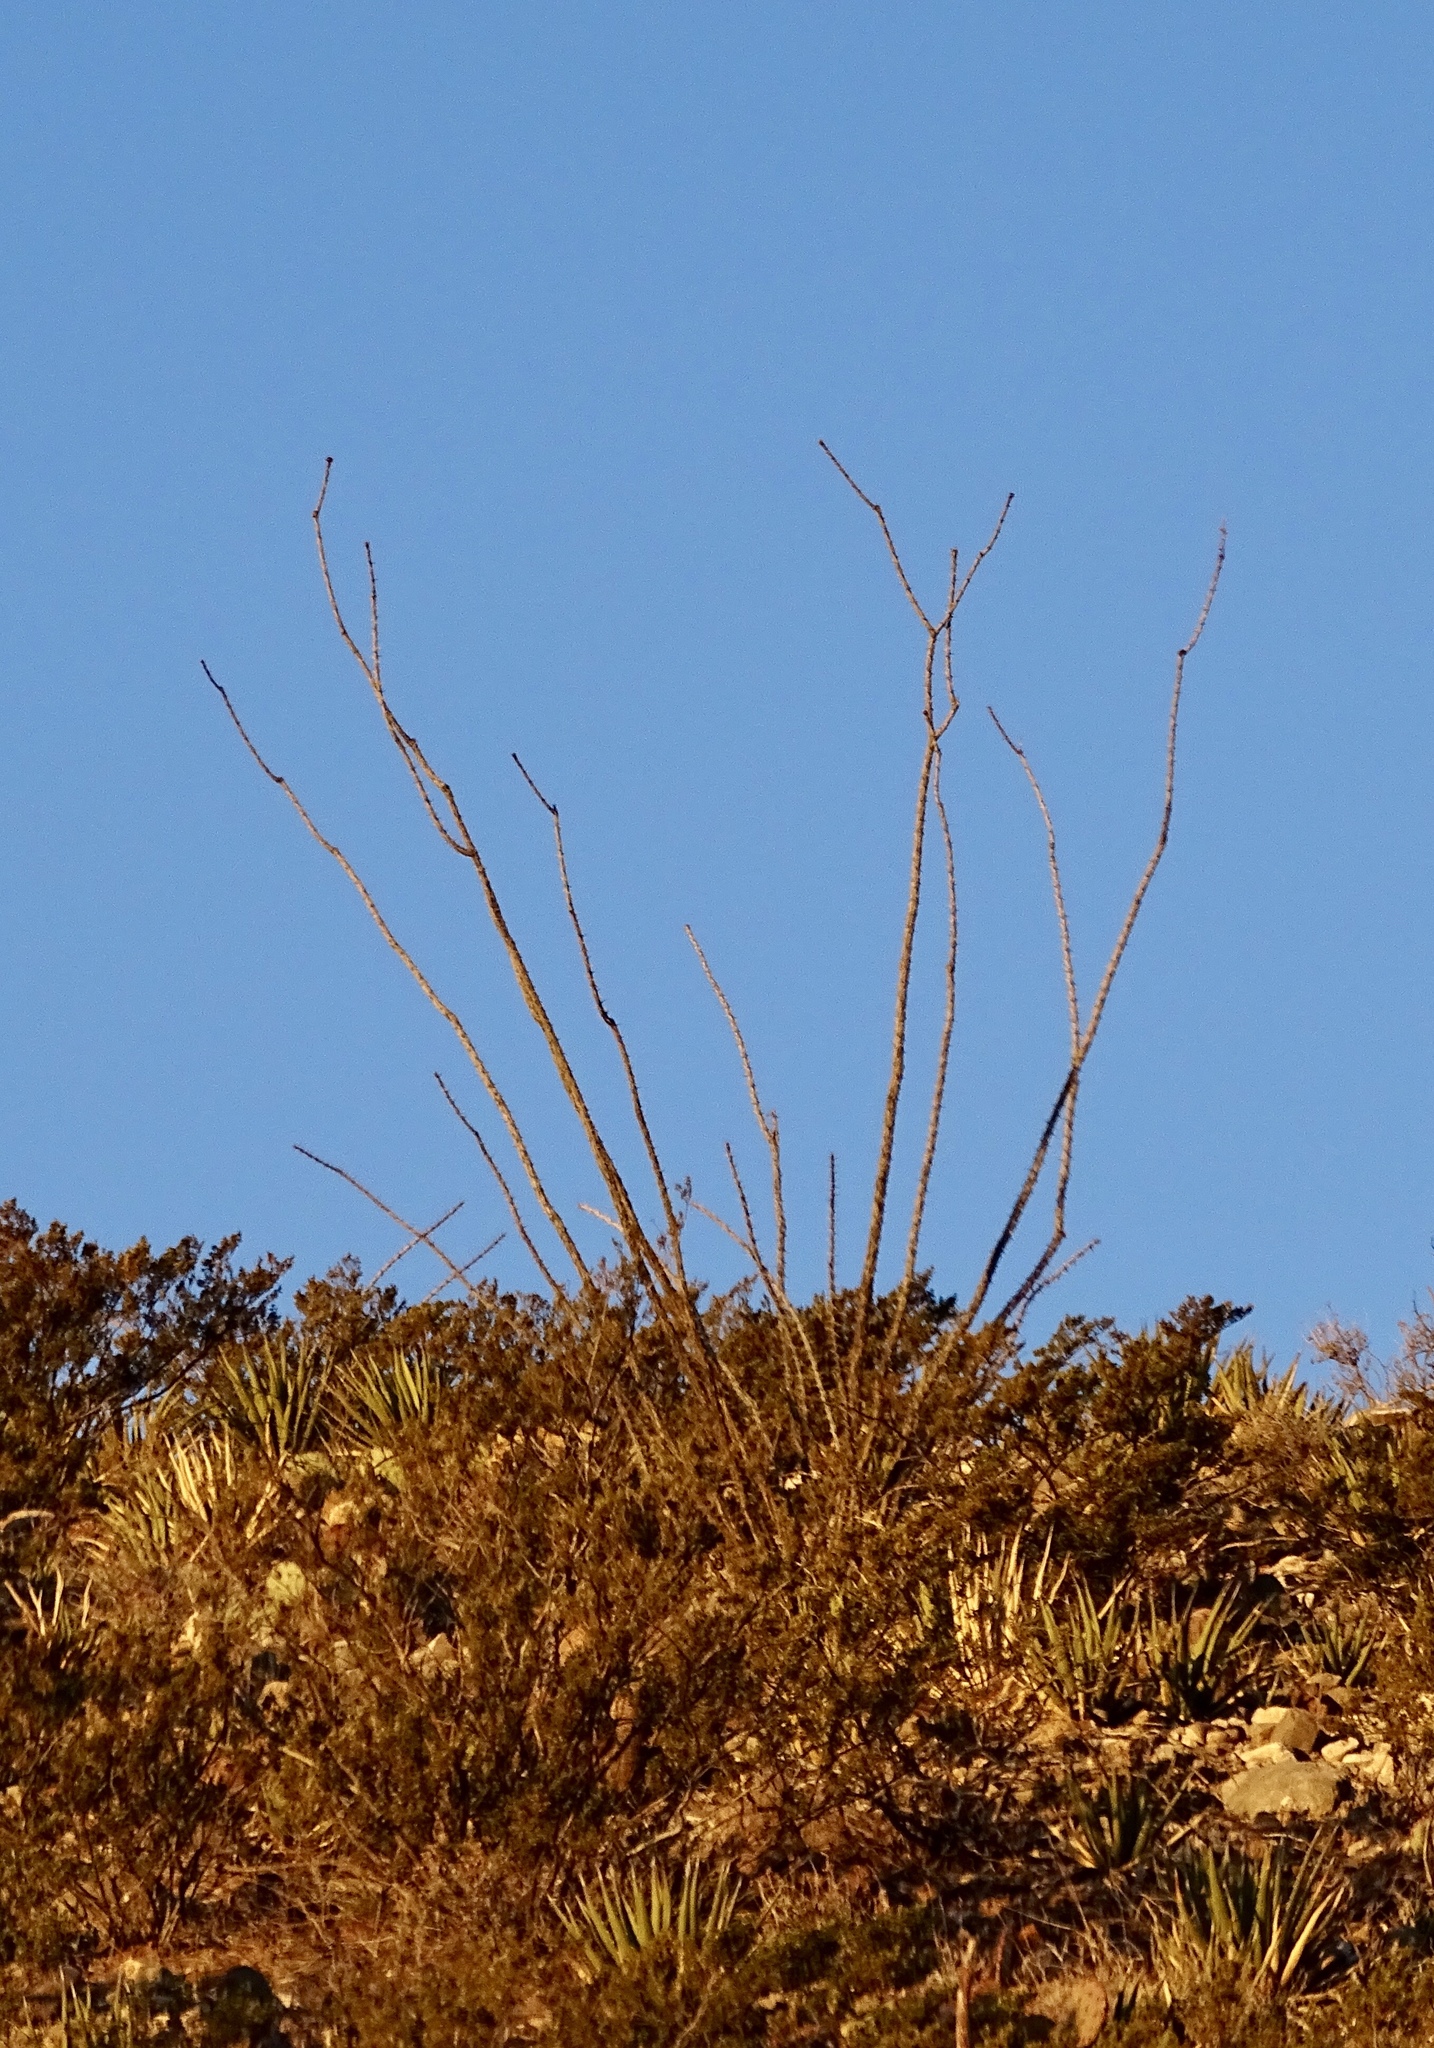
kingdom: Plantae
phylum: Tracheophyta
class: Magnoliopsida
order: Ericales
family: Fouquieriaceae
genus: Fouquieria
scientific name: Fouquieria splendens
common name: Vine-cactus
